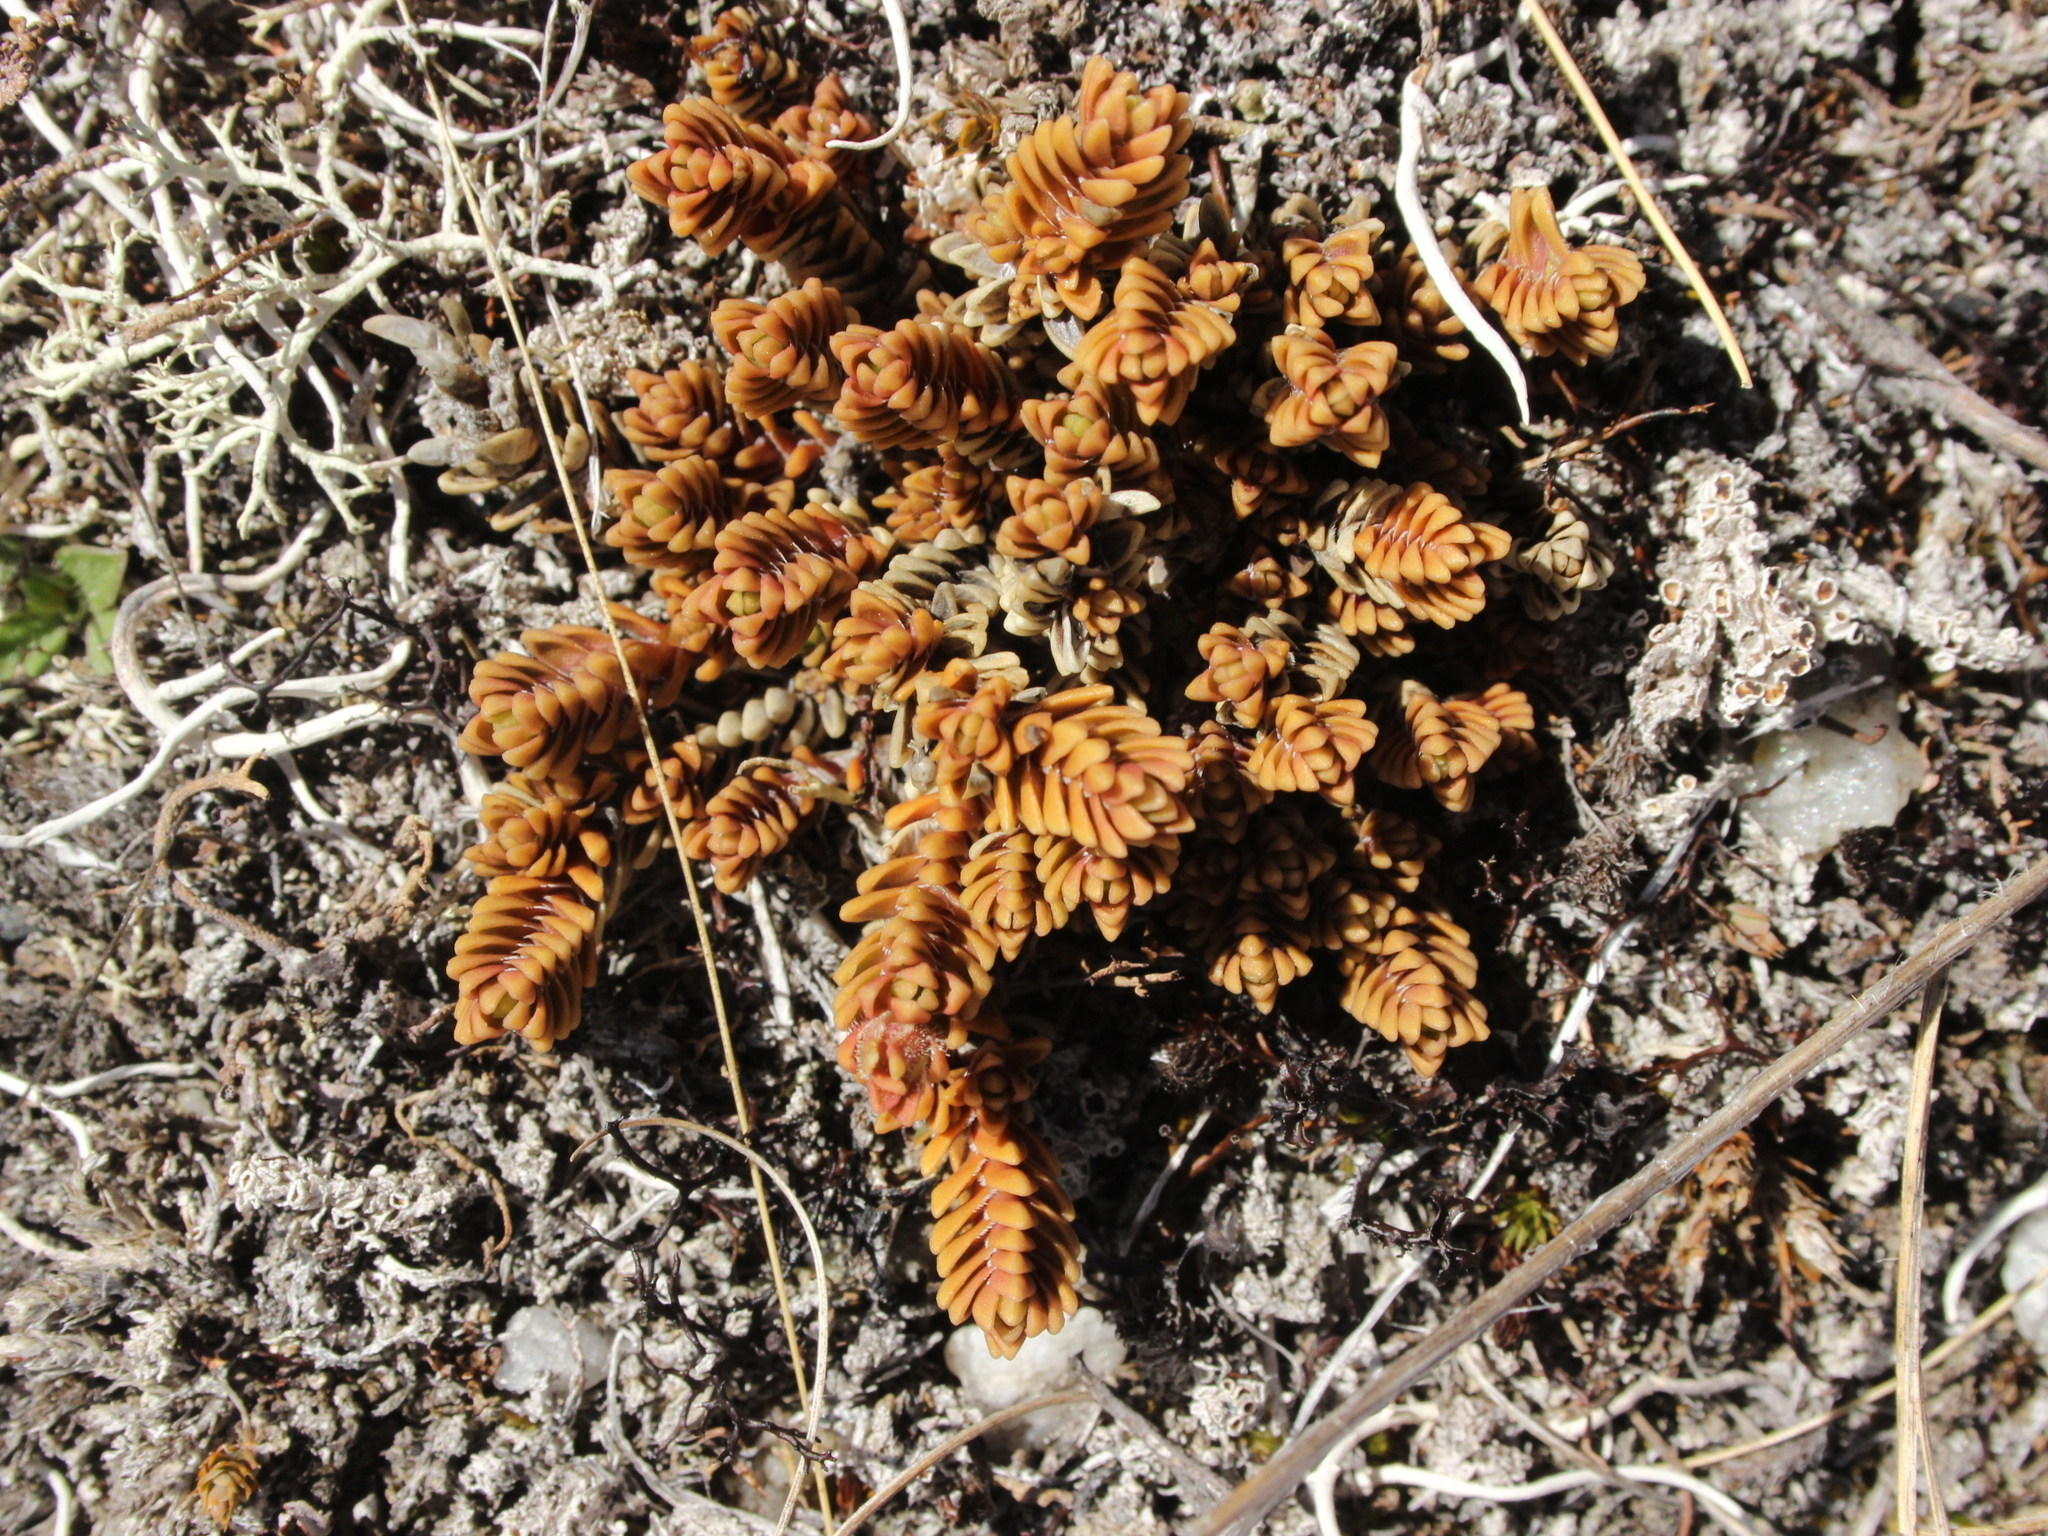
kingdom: Plantae
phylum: Tracheophyta
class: Magnoliopsida
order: Lamiales
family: Plantaginaceae
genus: Veronica
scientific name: Veronica densifolia
